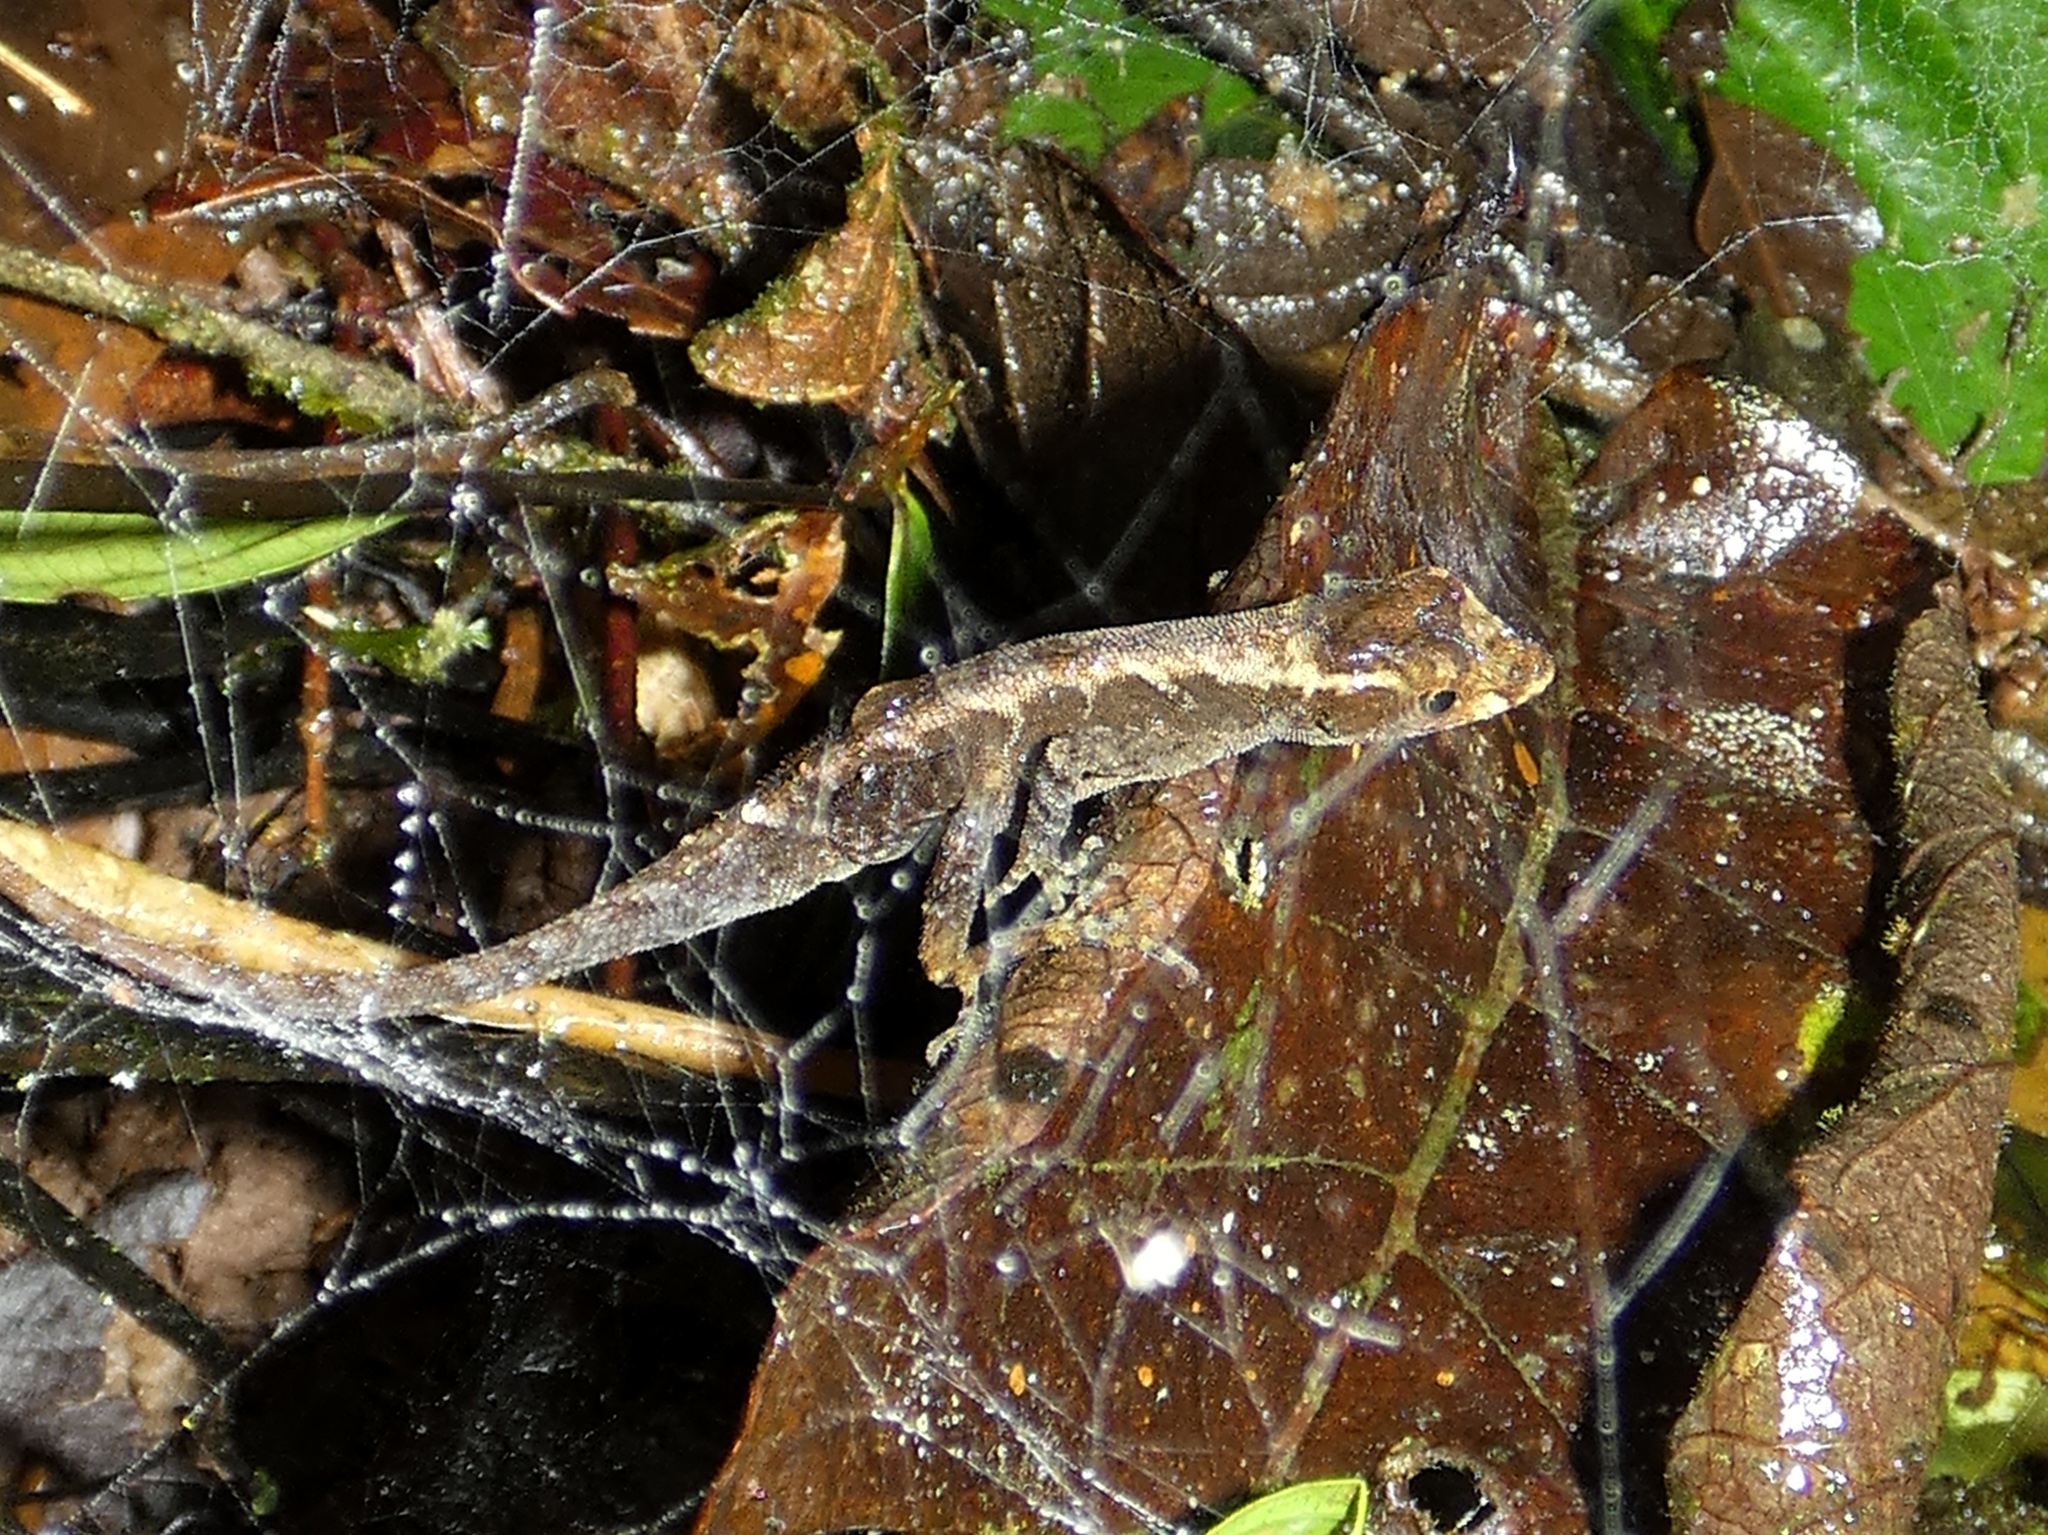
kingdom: Animalia
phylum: Chordata
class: Squamata
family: Dactyloidae
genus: Anolis
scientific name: Anolis humilis
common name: Humble anole
